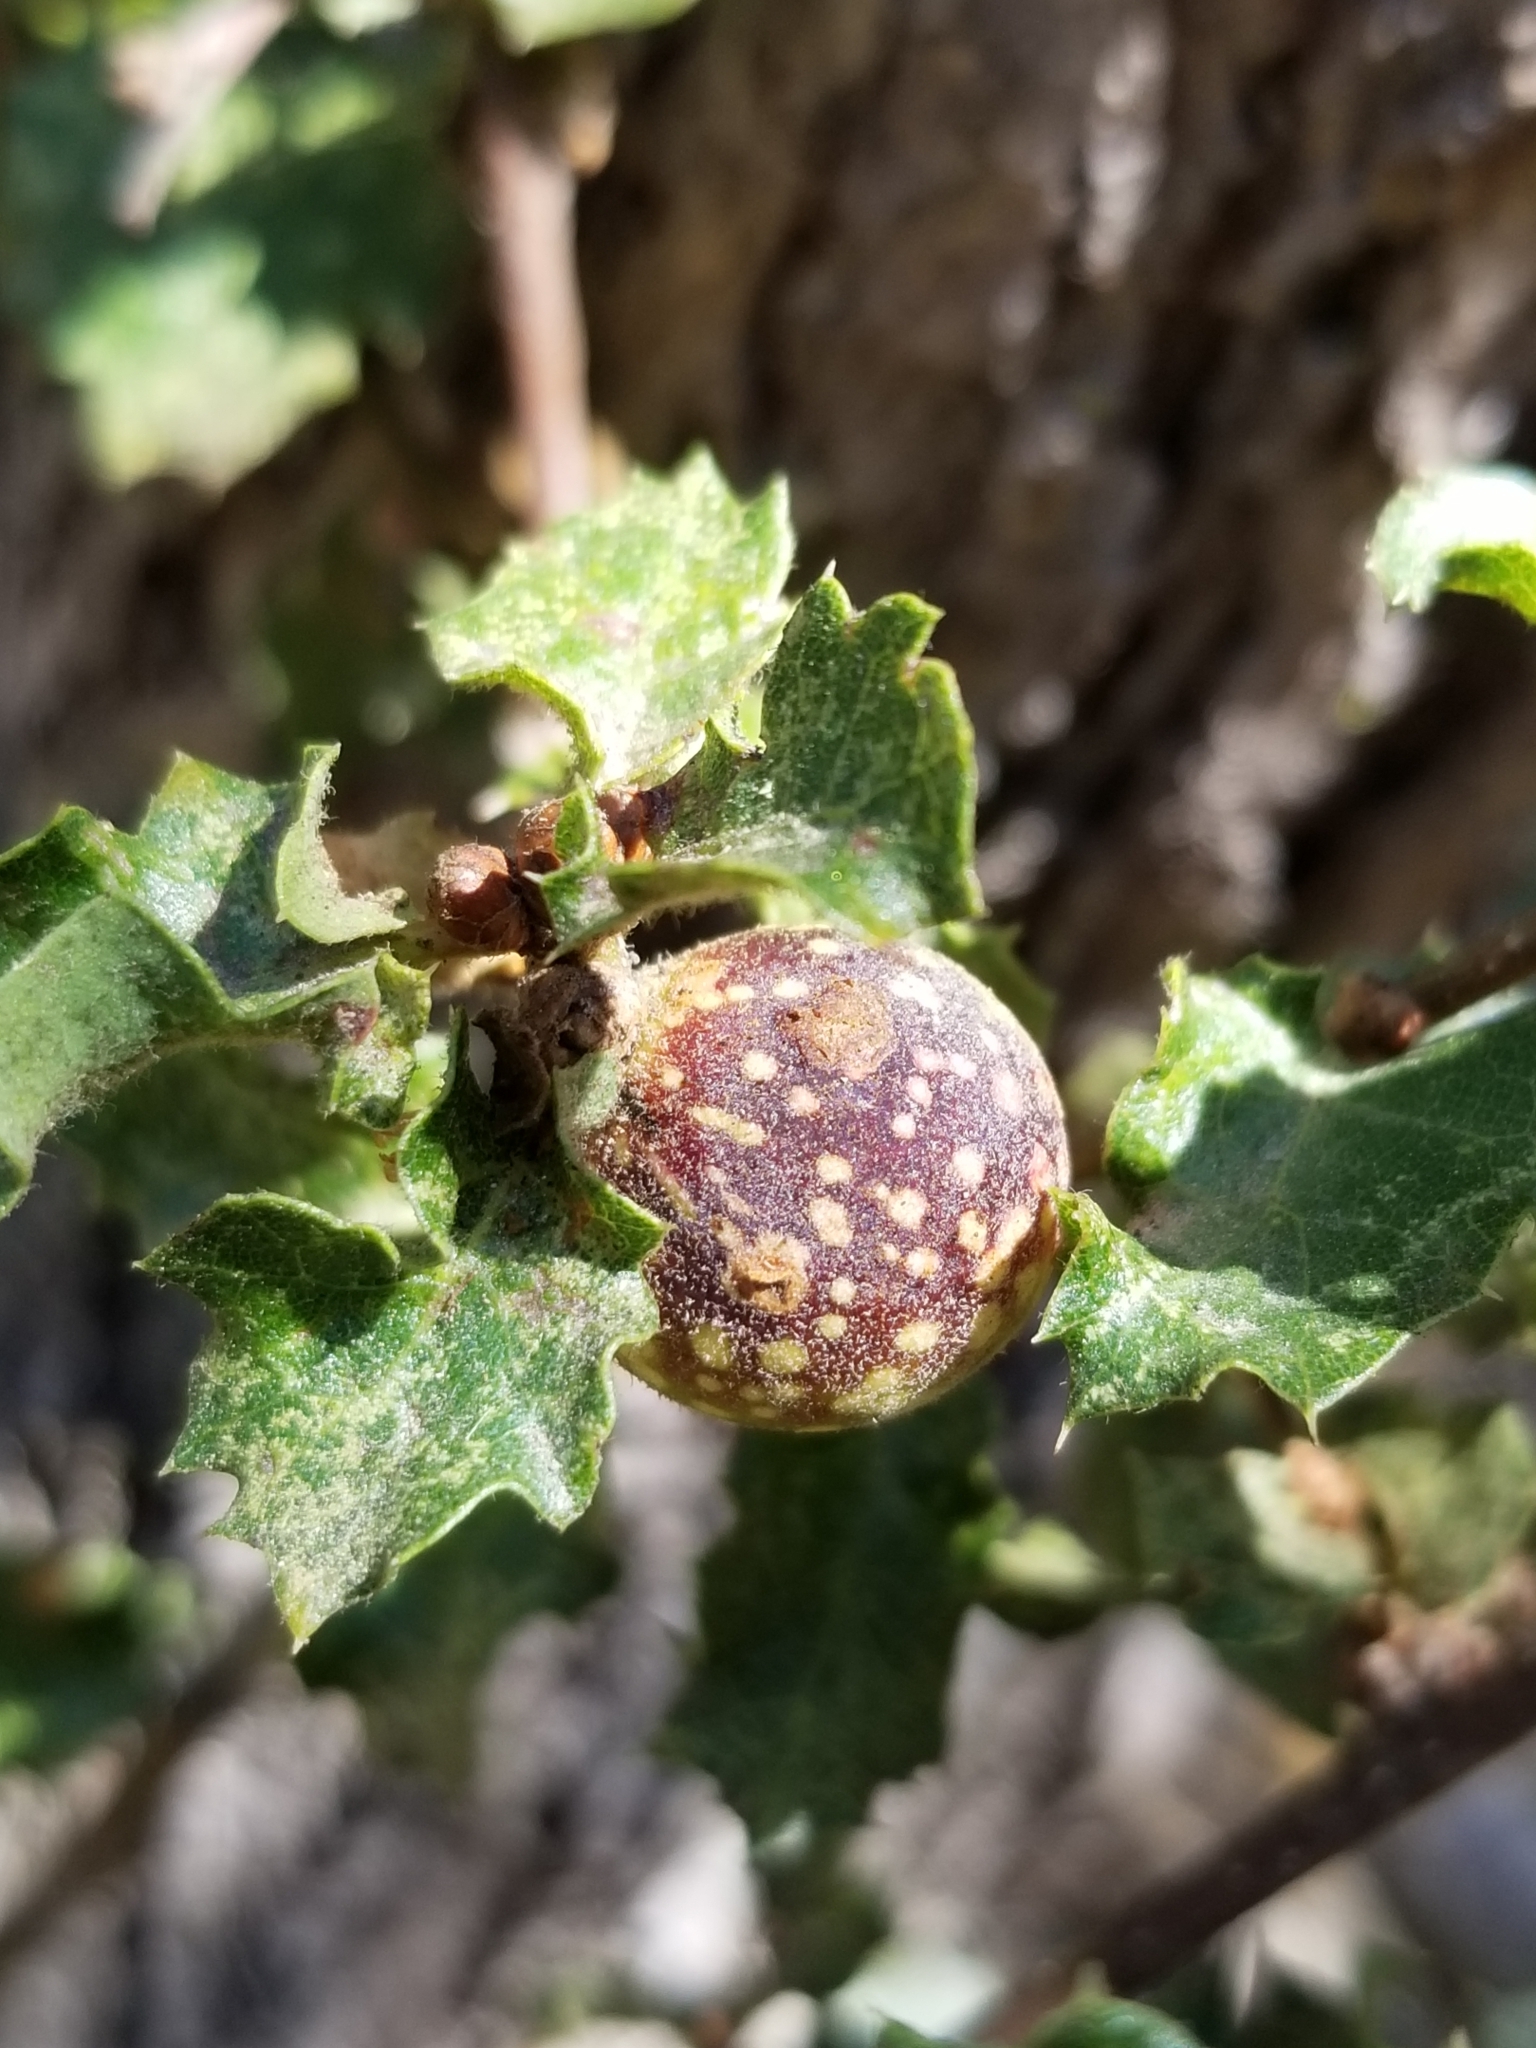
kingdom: Animalia
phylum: Arthropoda
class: Insecta
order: Hymenoptera
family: Cynipidae
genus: Burnettweldia
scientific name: Burnettweldia
